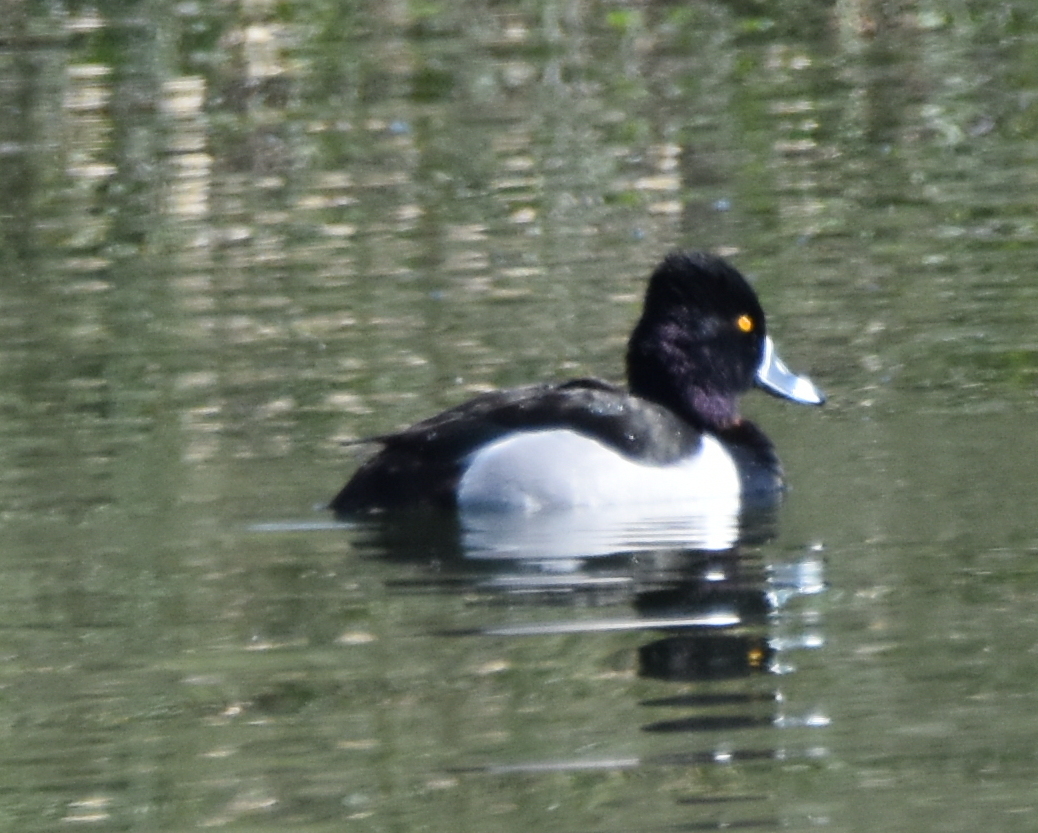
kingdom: Animalia
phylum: Chordata
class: Aves
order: Anseriformes
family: Anatidae
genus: Aythya
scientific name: Aythya collaris
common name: Ring-necked duck
